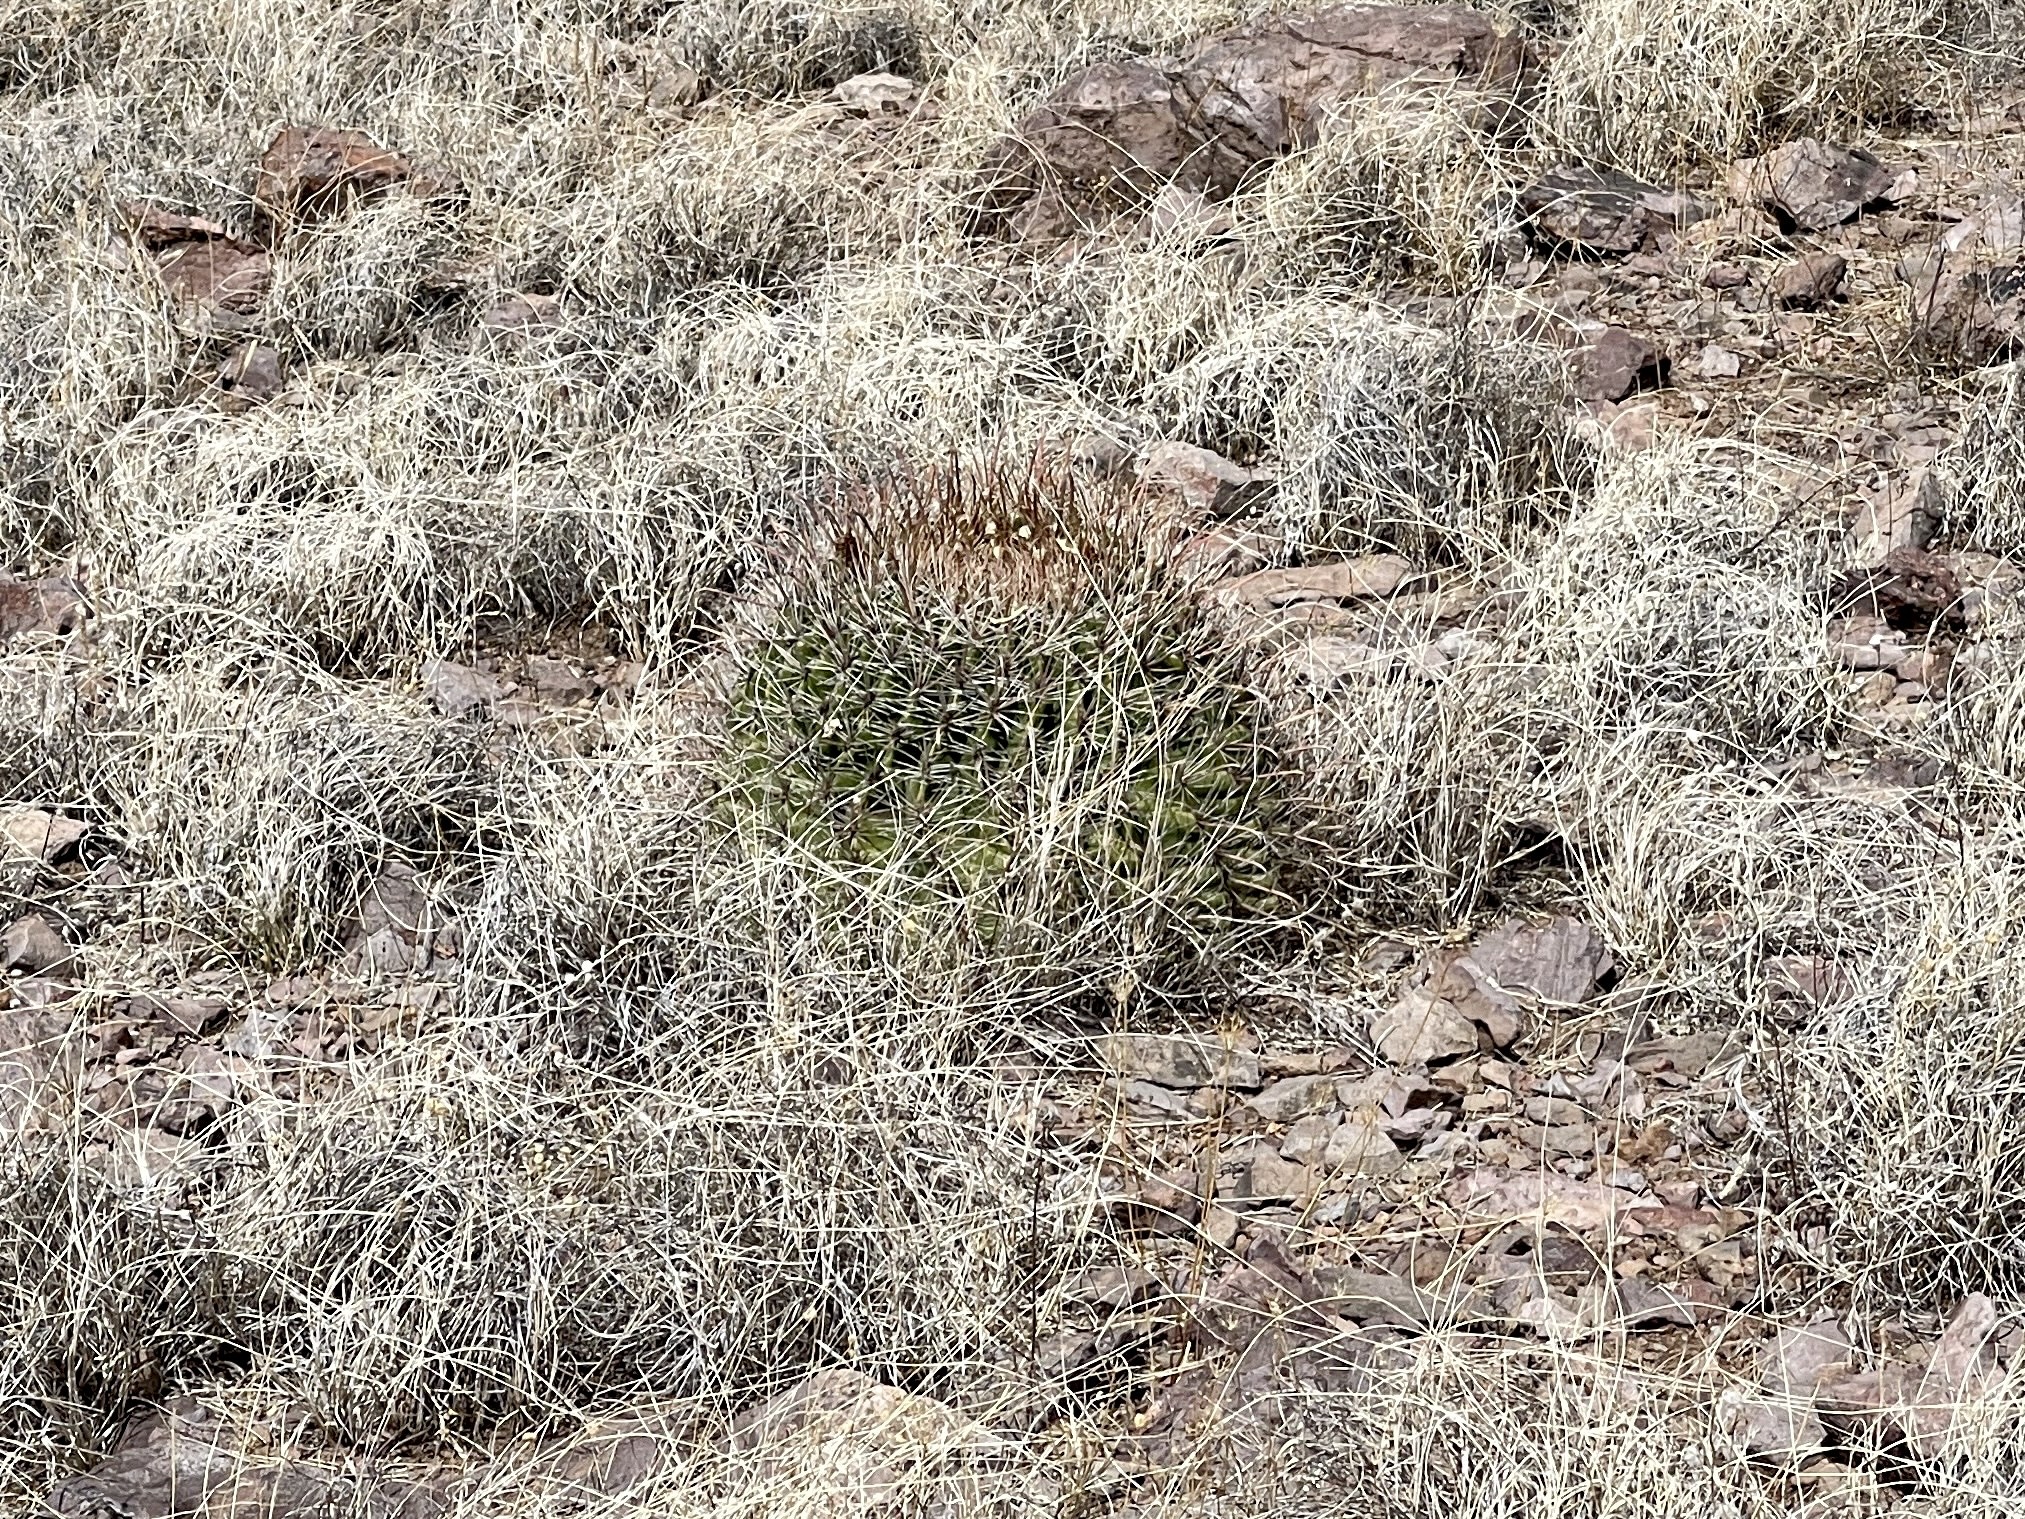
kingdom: Plantae
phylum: Tracheophyta
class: Magnoliopsida
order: Caryophyllales
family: Cactaceae
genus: Ferocactus
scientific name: Ferocactus wislizeni
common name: Candy barrel cactus
